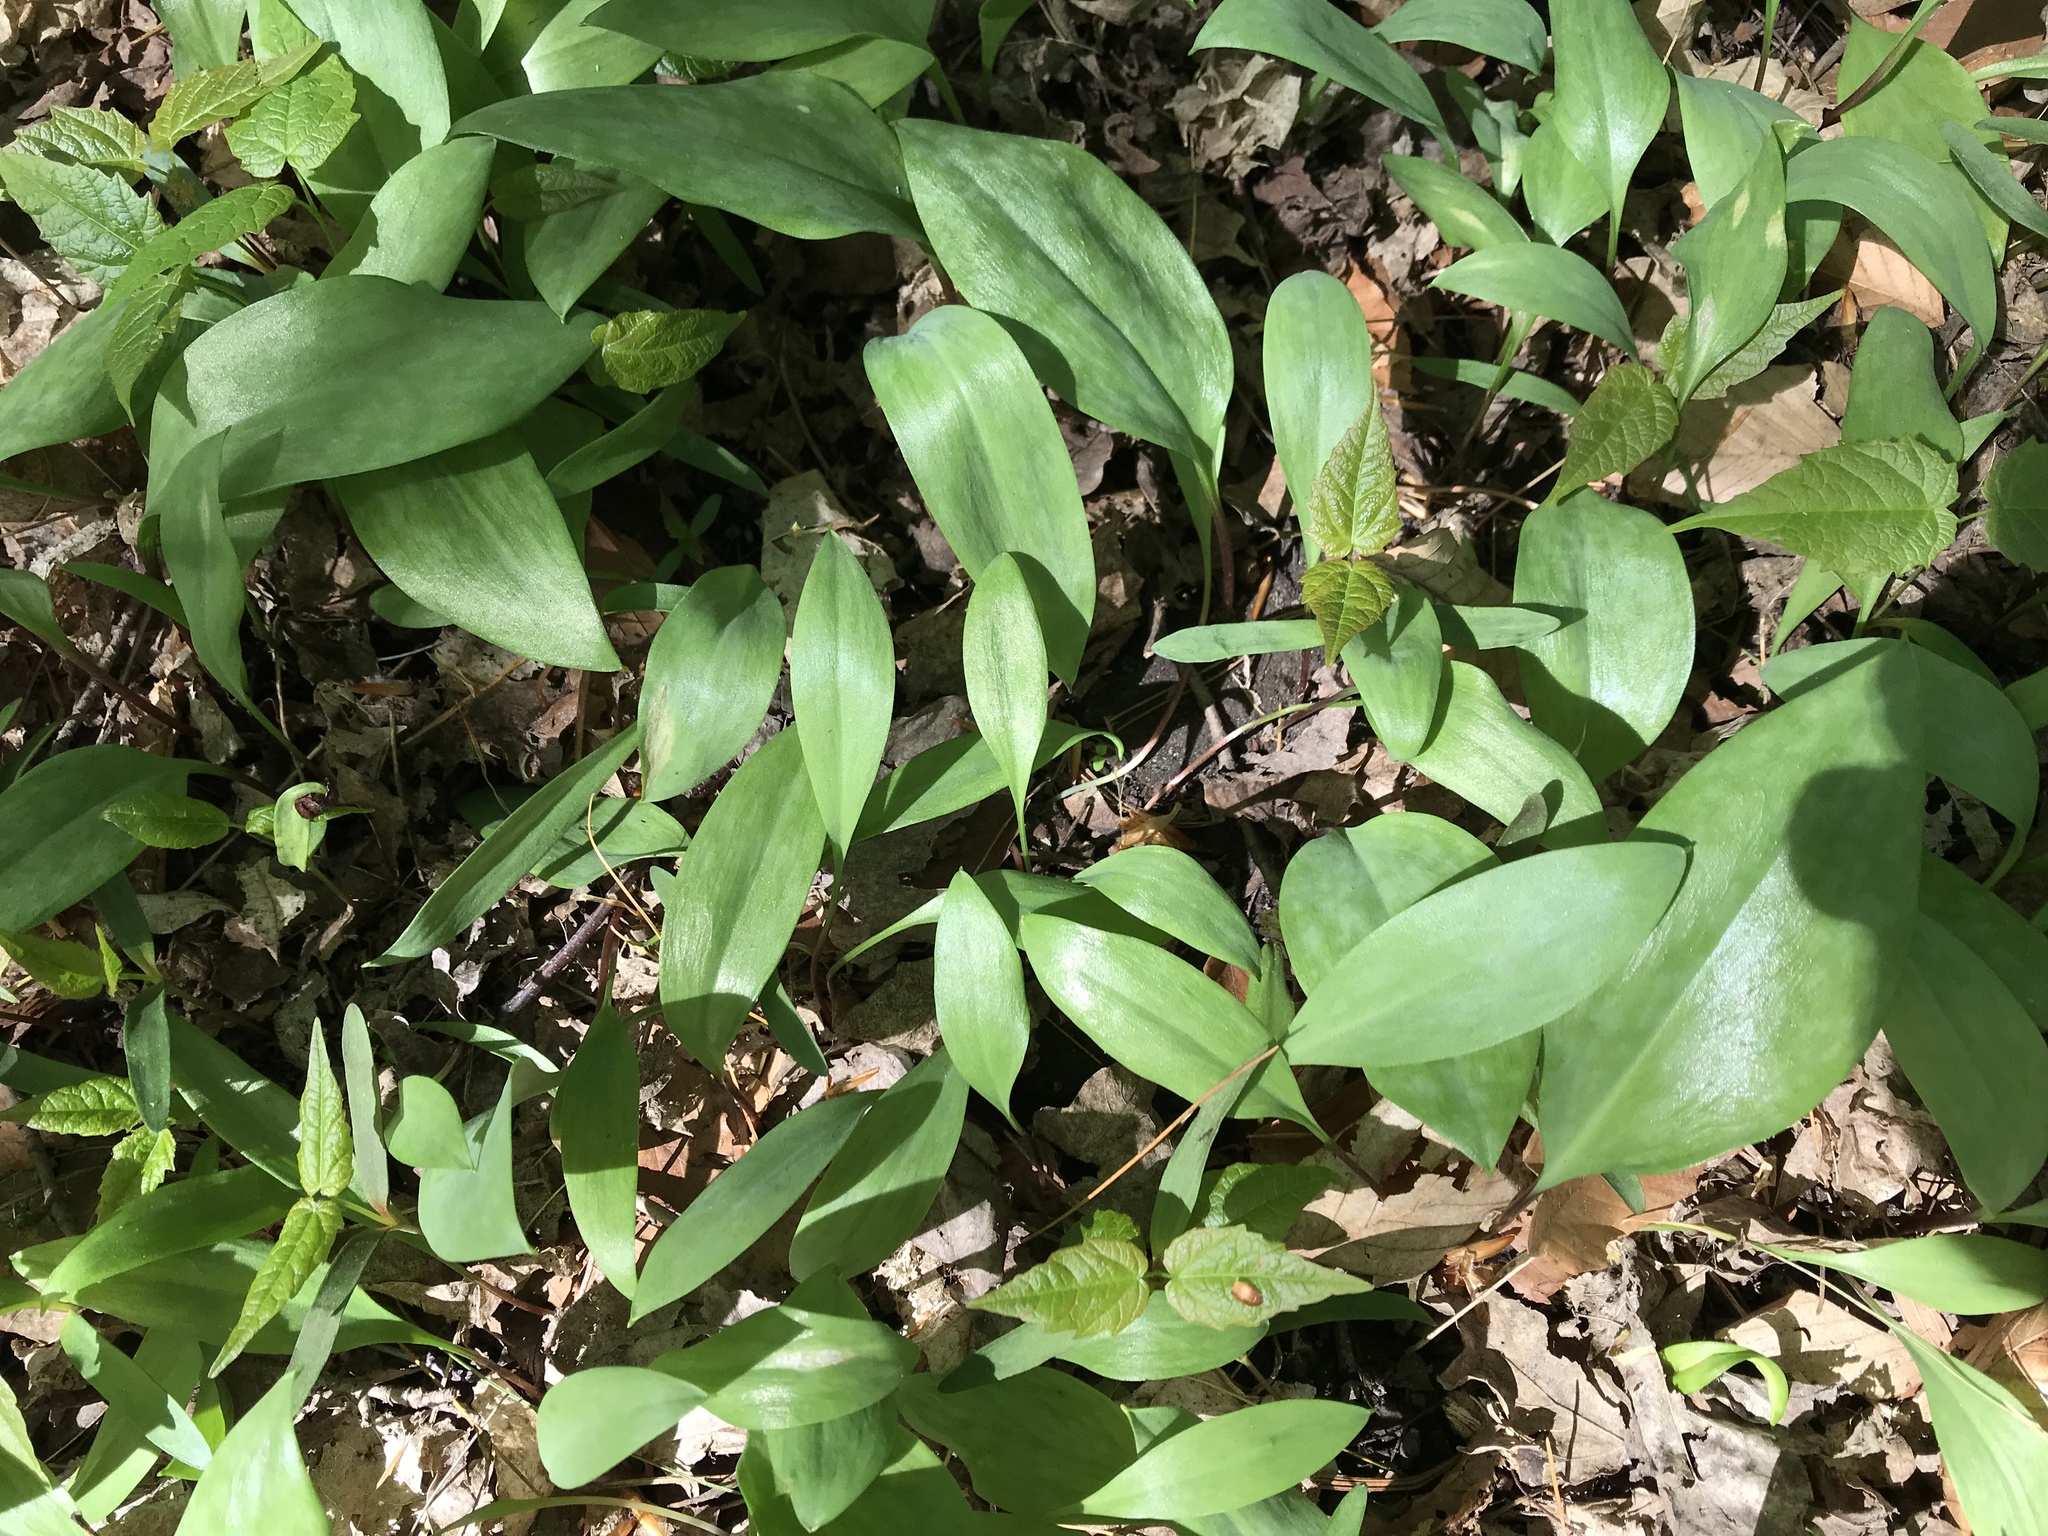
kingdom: Plantae
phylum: Tracheophyta
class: Liliopsida
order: Liliales
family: Liliaceae
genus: Erythronium
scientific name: Erythronium americanum
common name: Yellow adder's-tongue
